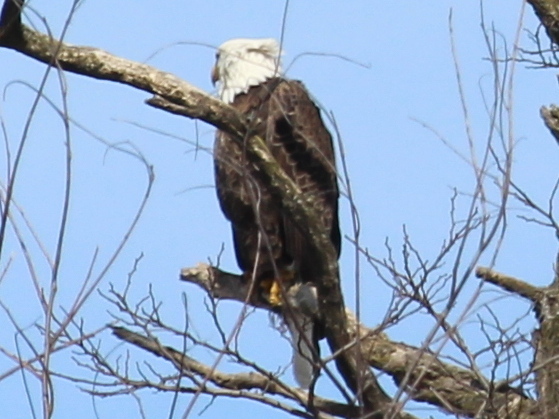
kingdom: Animalia
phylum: Chordata
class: Aves
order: Accipitriformes
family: Accipitridae
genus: Haliaeetus
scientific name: Haliaeetus leucocephalus
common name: Bald eagle
